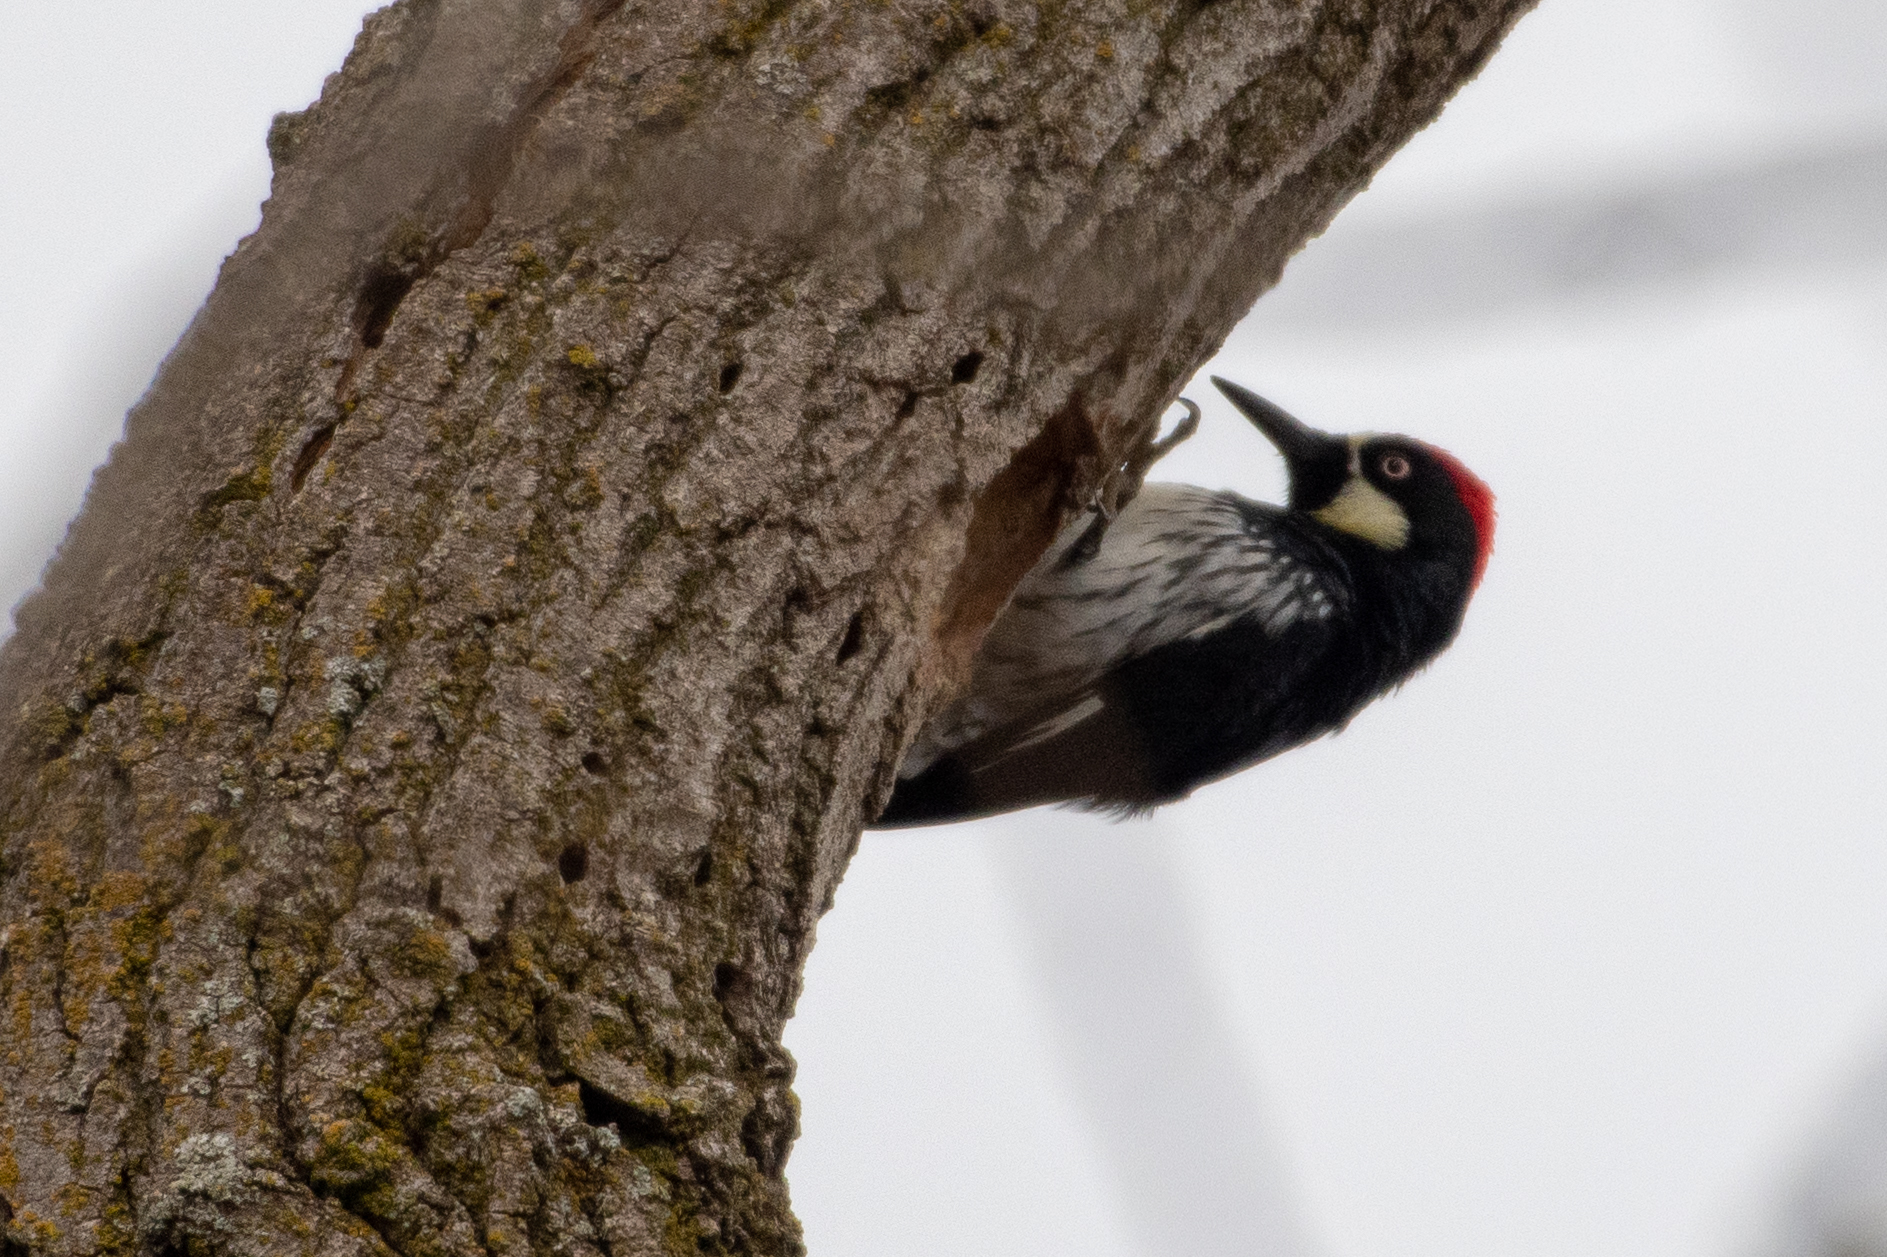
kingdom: Animalia
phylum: Chordata
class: Aves
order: Piciformes
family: Picidae
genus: Melanerpes
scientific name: Melanerpes formicivorus
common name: Acorn woodpecker
